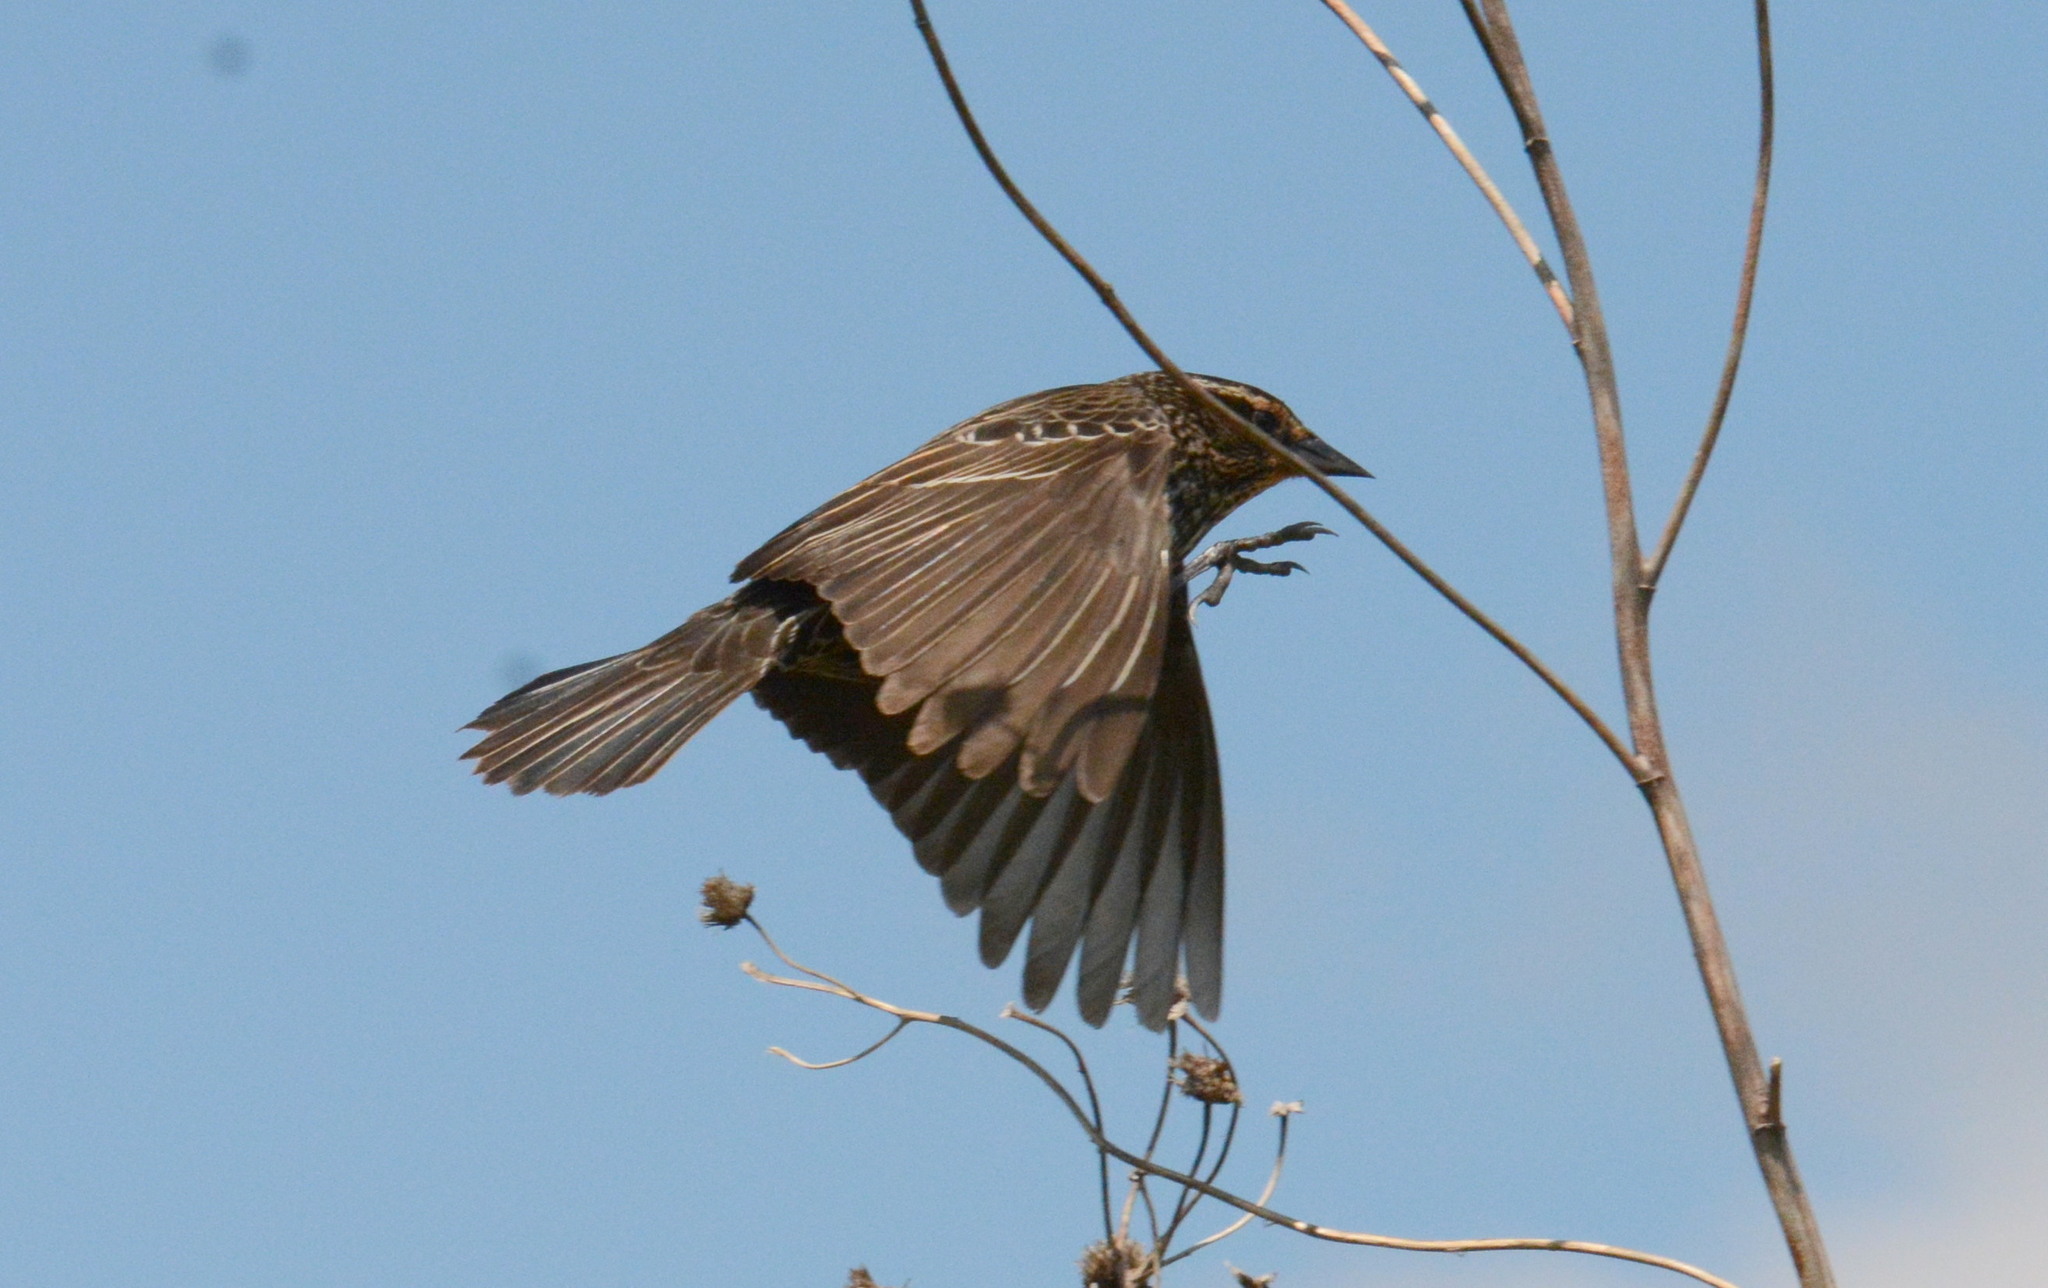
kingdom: Animalia
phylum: Chordata
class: Aves
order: Passeriformes
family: Icteridae
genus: Agelaius
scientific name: Agelaius phoeniceus
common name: Red-winged blackbird
